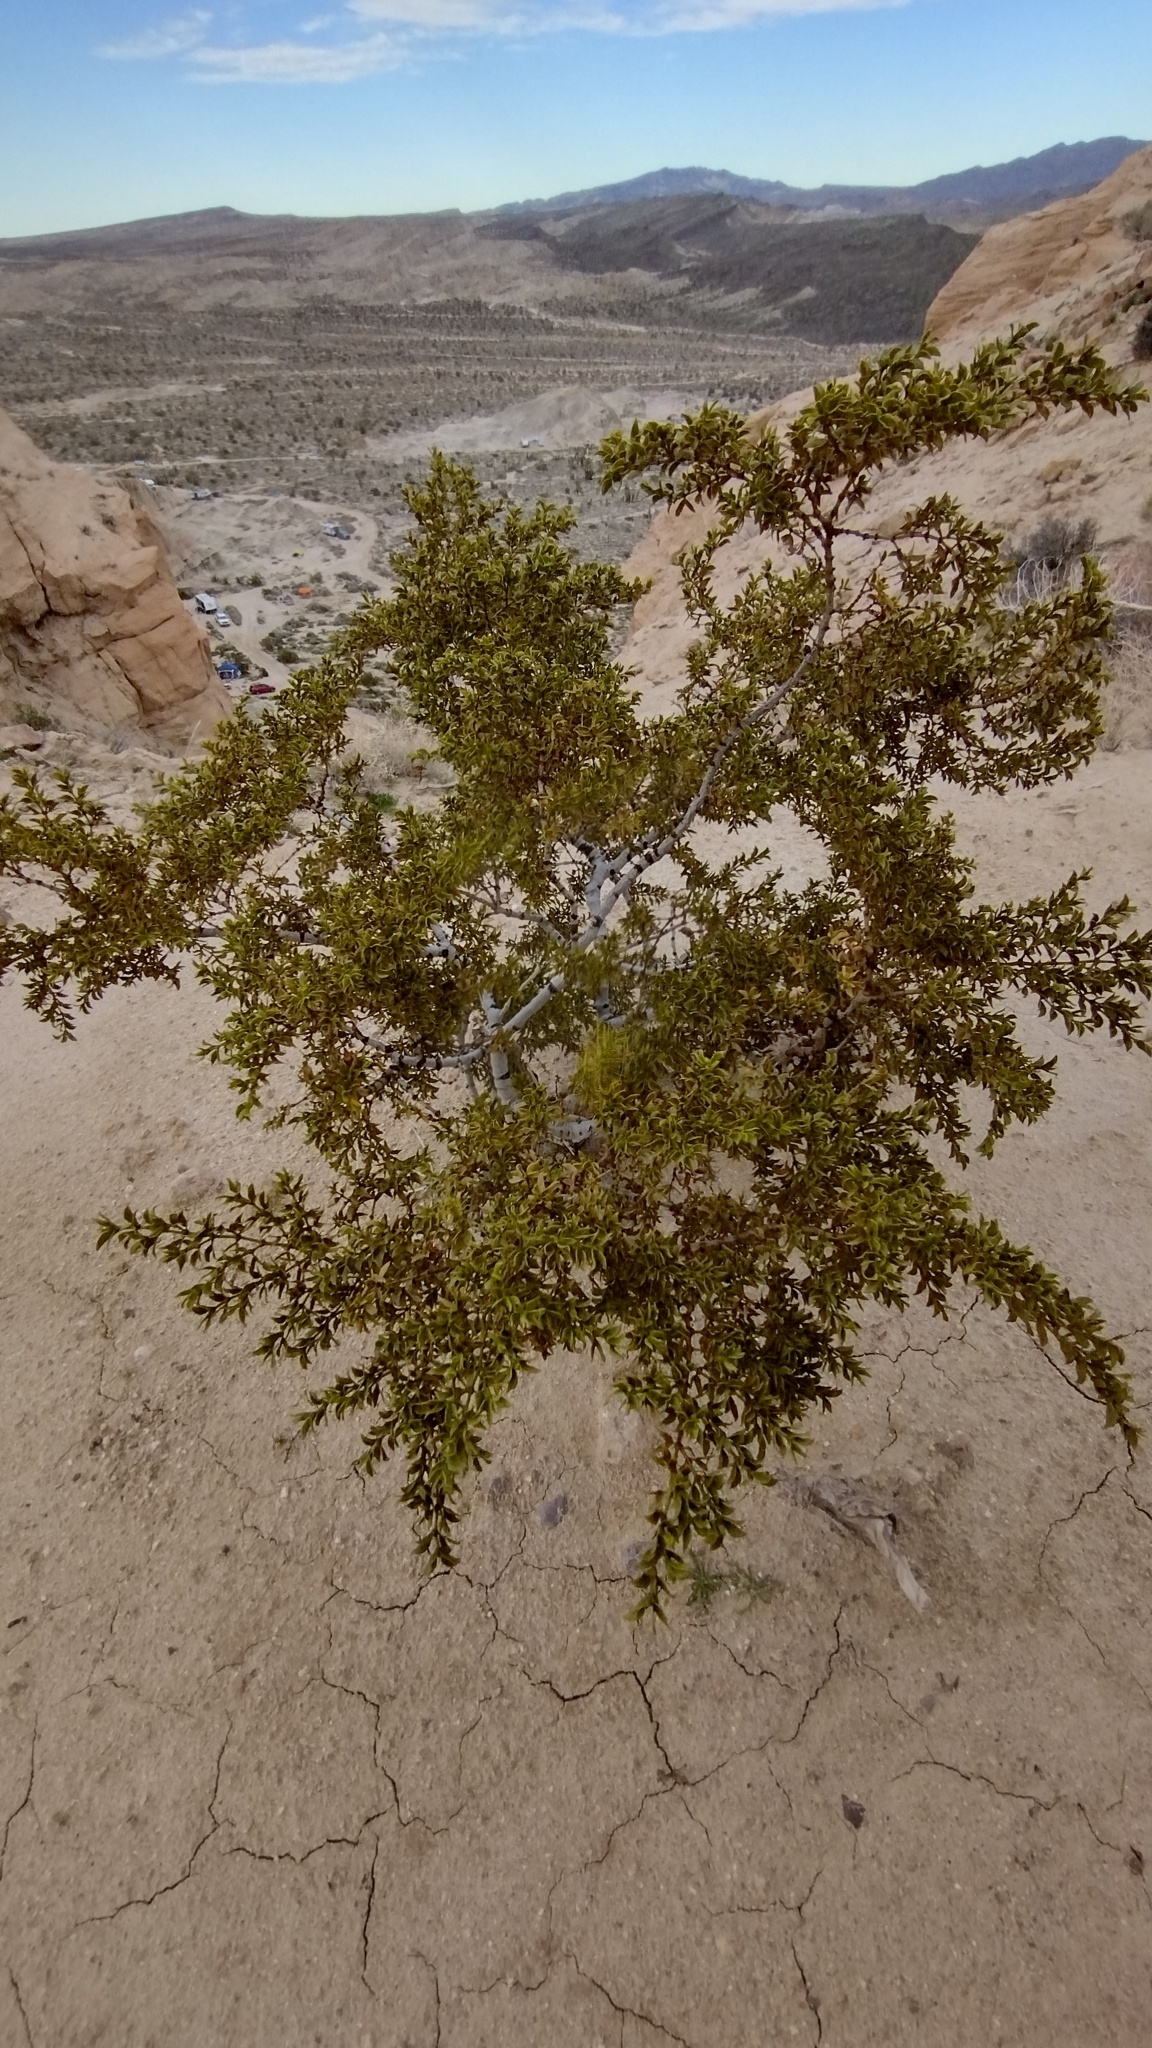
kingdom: Plantae
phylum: Tracheophyta
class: Magnoliopsida
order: Zygophyllales
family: Zygophyllaceae
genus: Larrea
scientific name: Larrea tridentata
